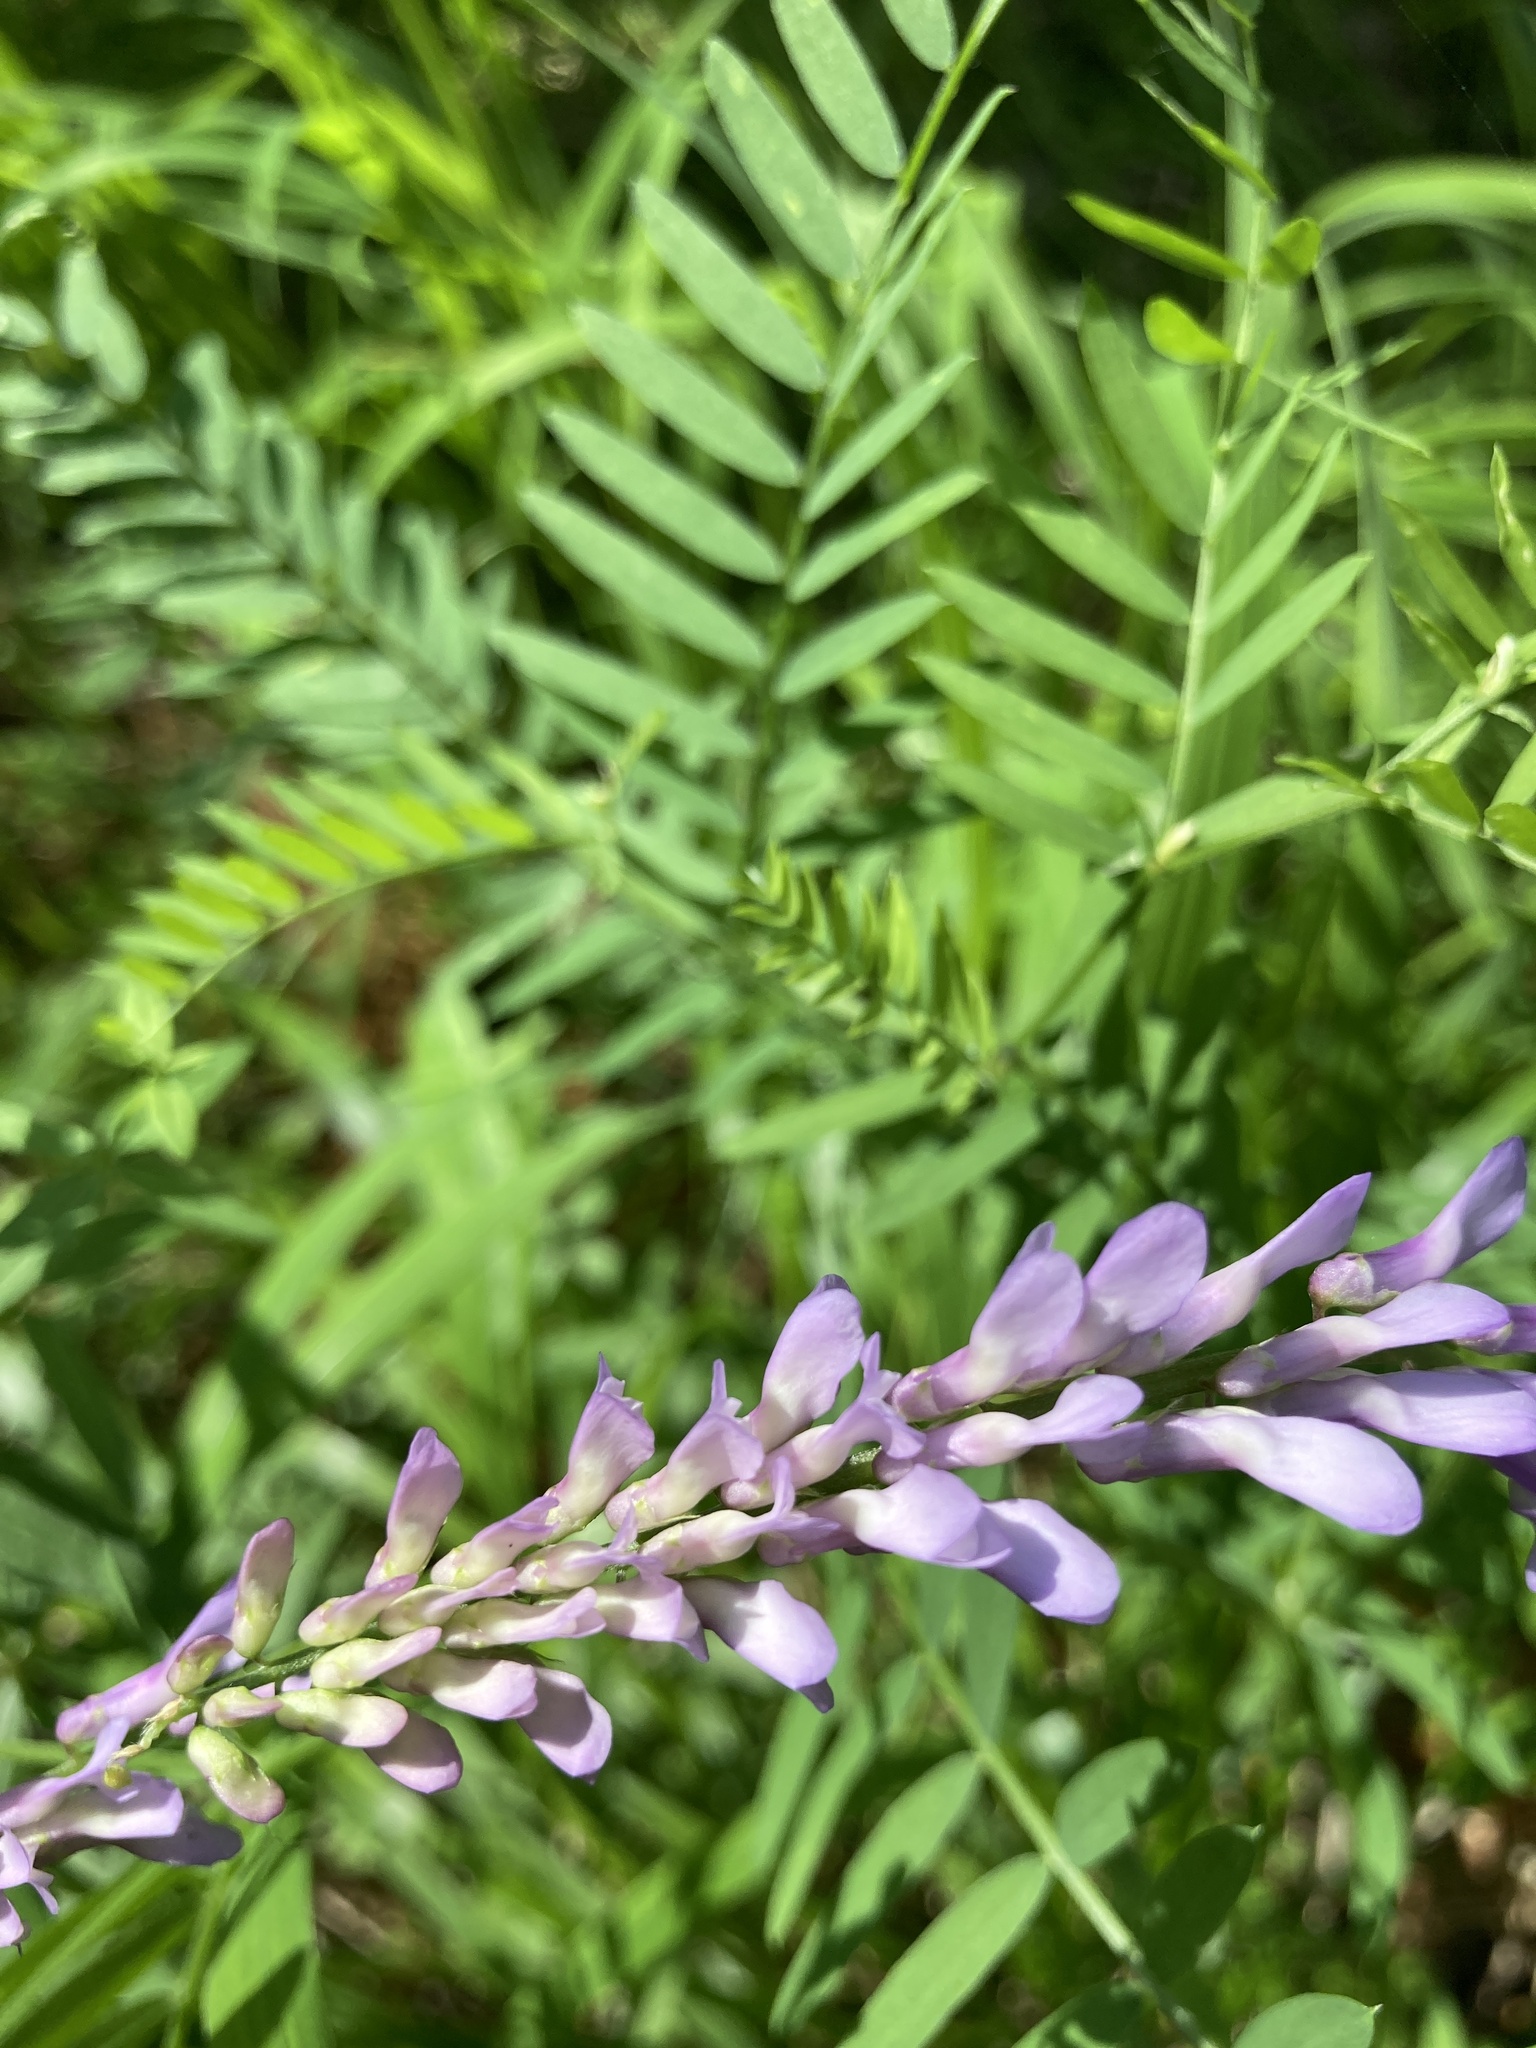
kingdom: Plantae
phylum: Tracheophyta
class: Magnoliopsida
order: Fabales
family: Fabaceae
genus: Vicia
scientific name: Vicia cracca
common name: Bird vetch
